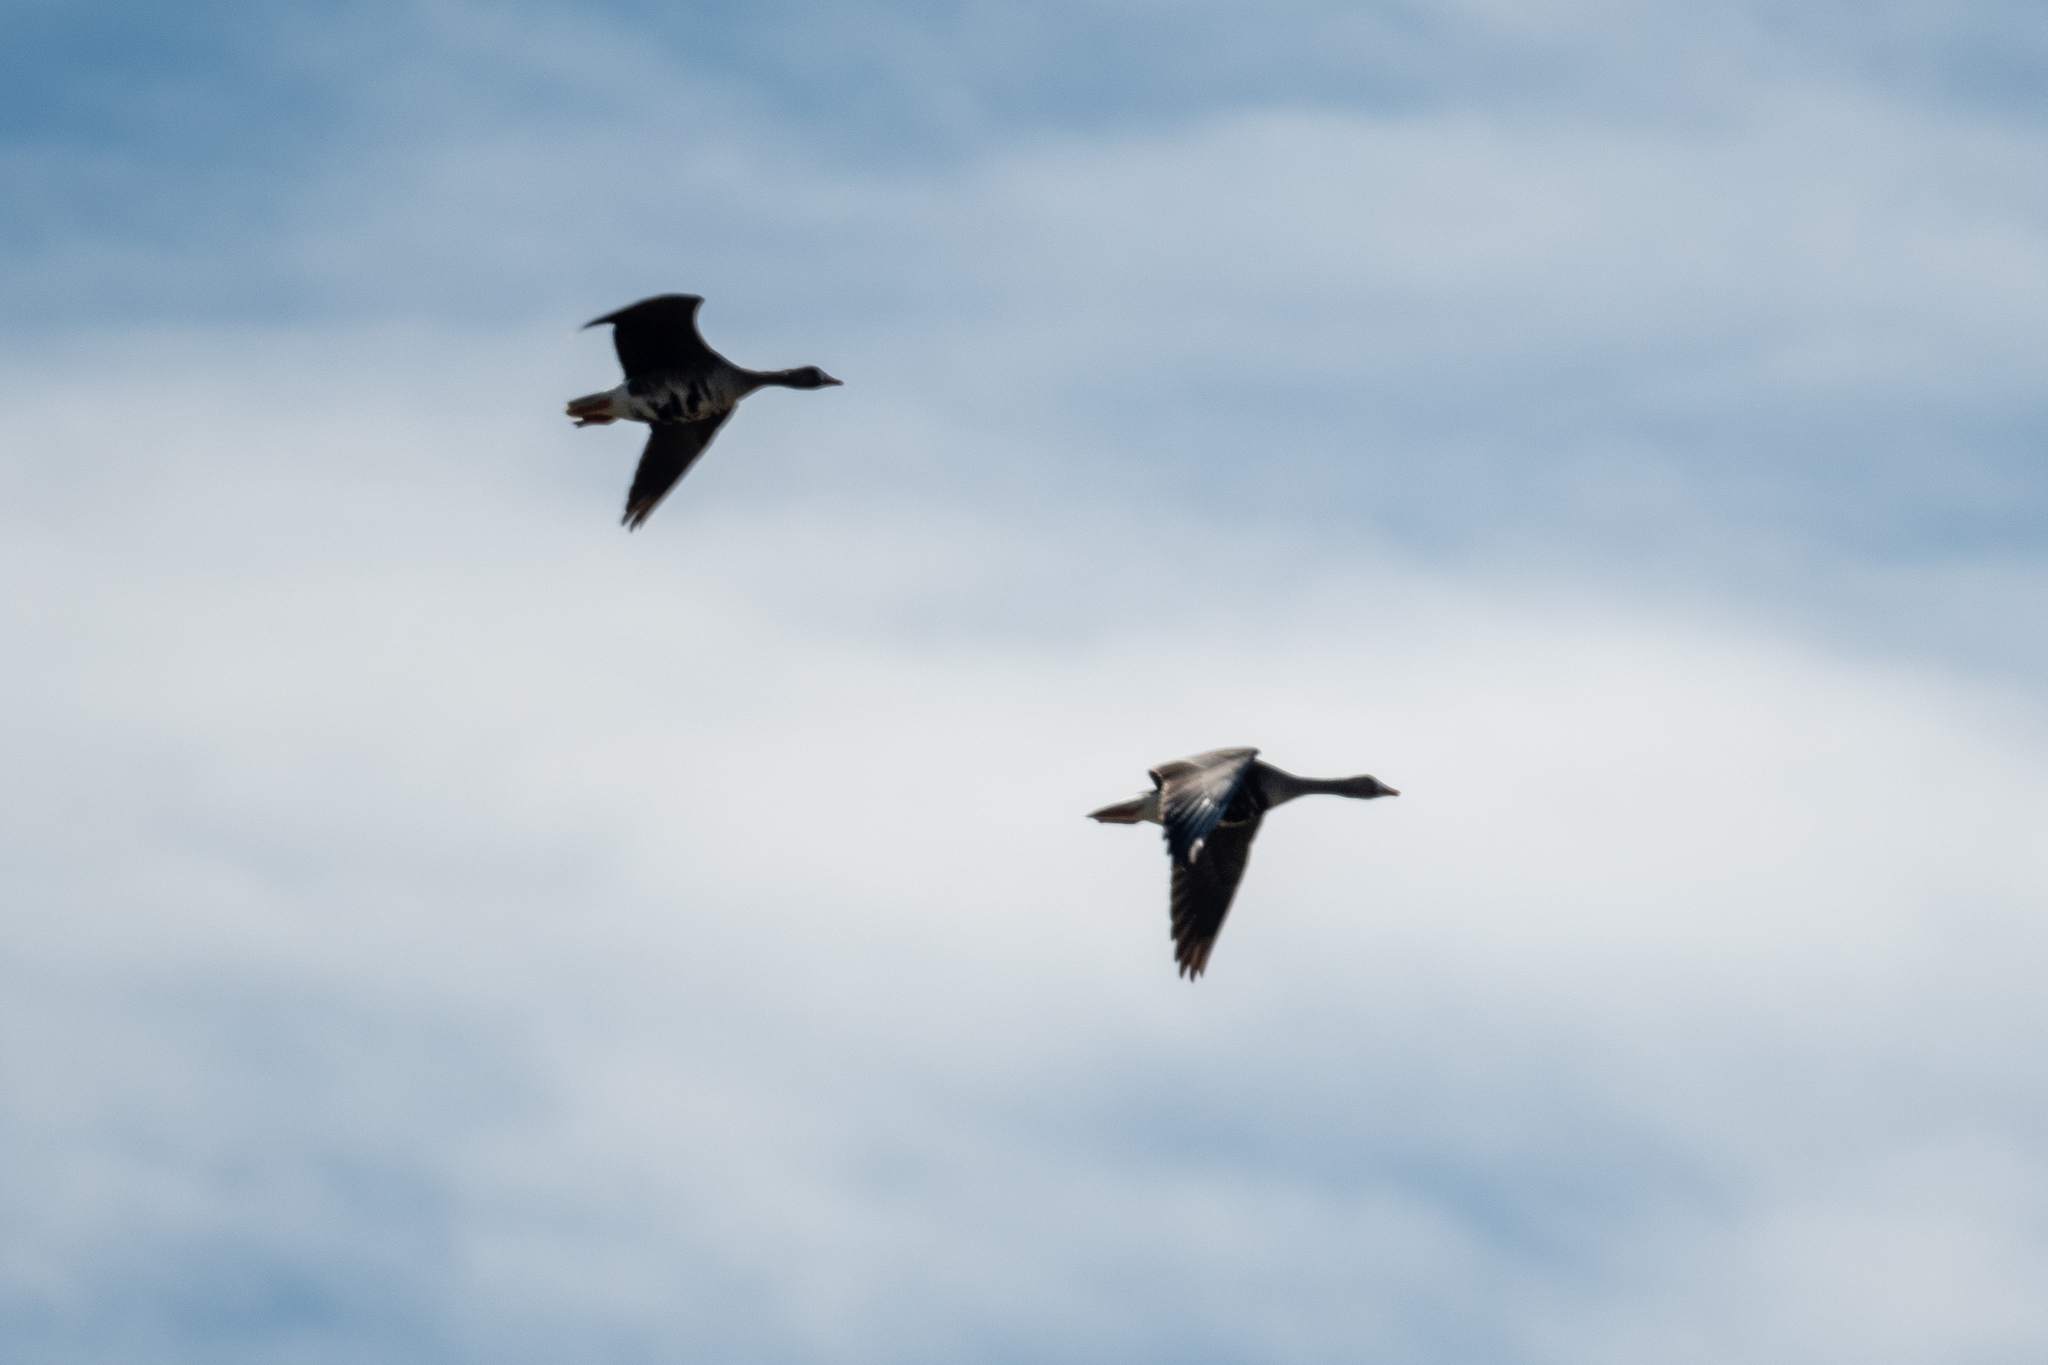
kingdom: Animalia
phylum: Chordata
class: Aves
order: Anseriformes
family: Anatidae
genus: Anser
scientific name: Anser albifrons
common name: Greater white-fronted goose
